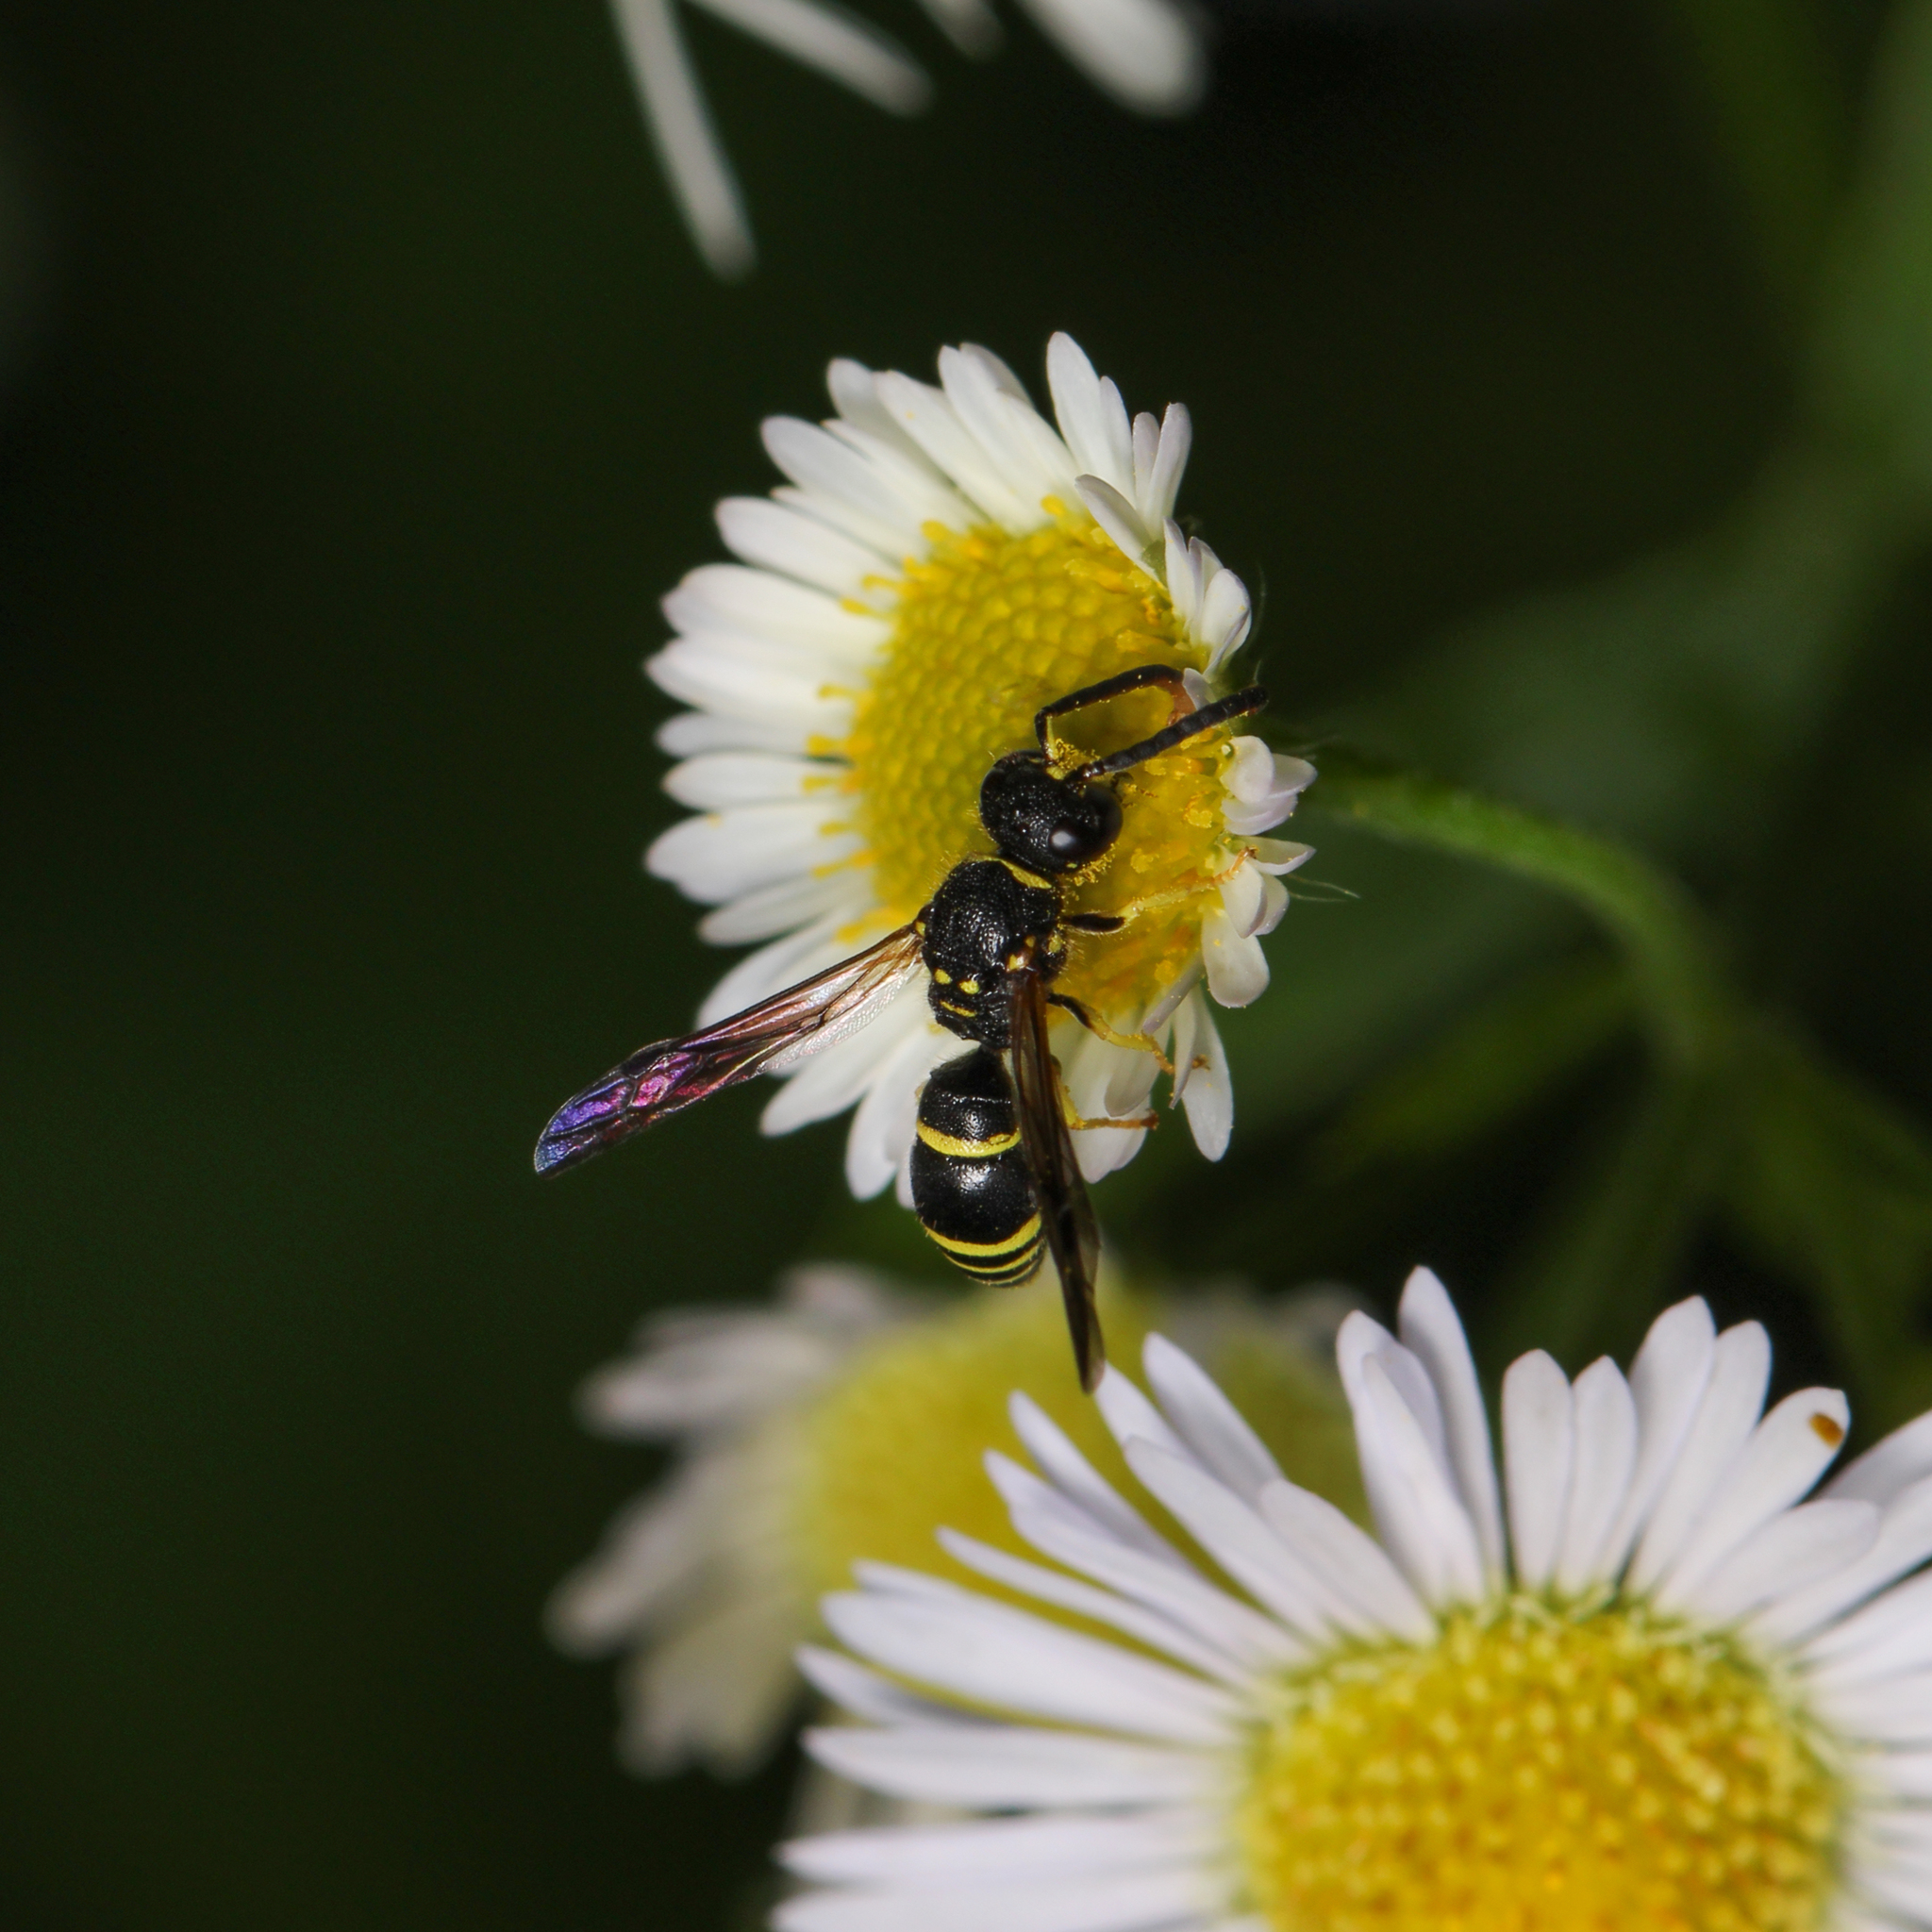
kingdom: Animalia
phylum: Arthropoda
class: Insecta
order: Hymenoptera
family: Vespidae
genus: Ancistrocerus
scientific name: Ancistrocerus adiabatus
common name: Bramble mason wasp
